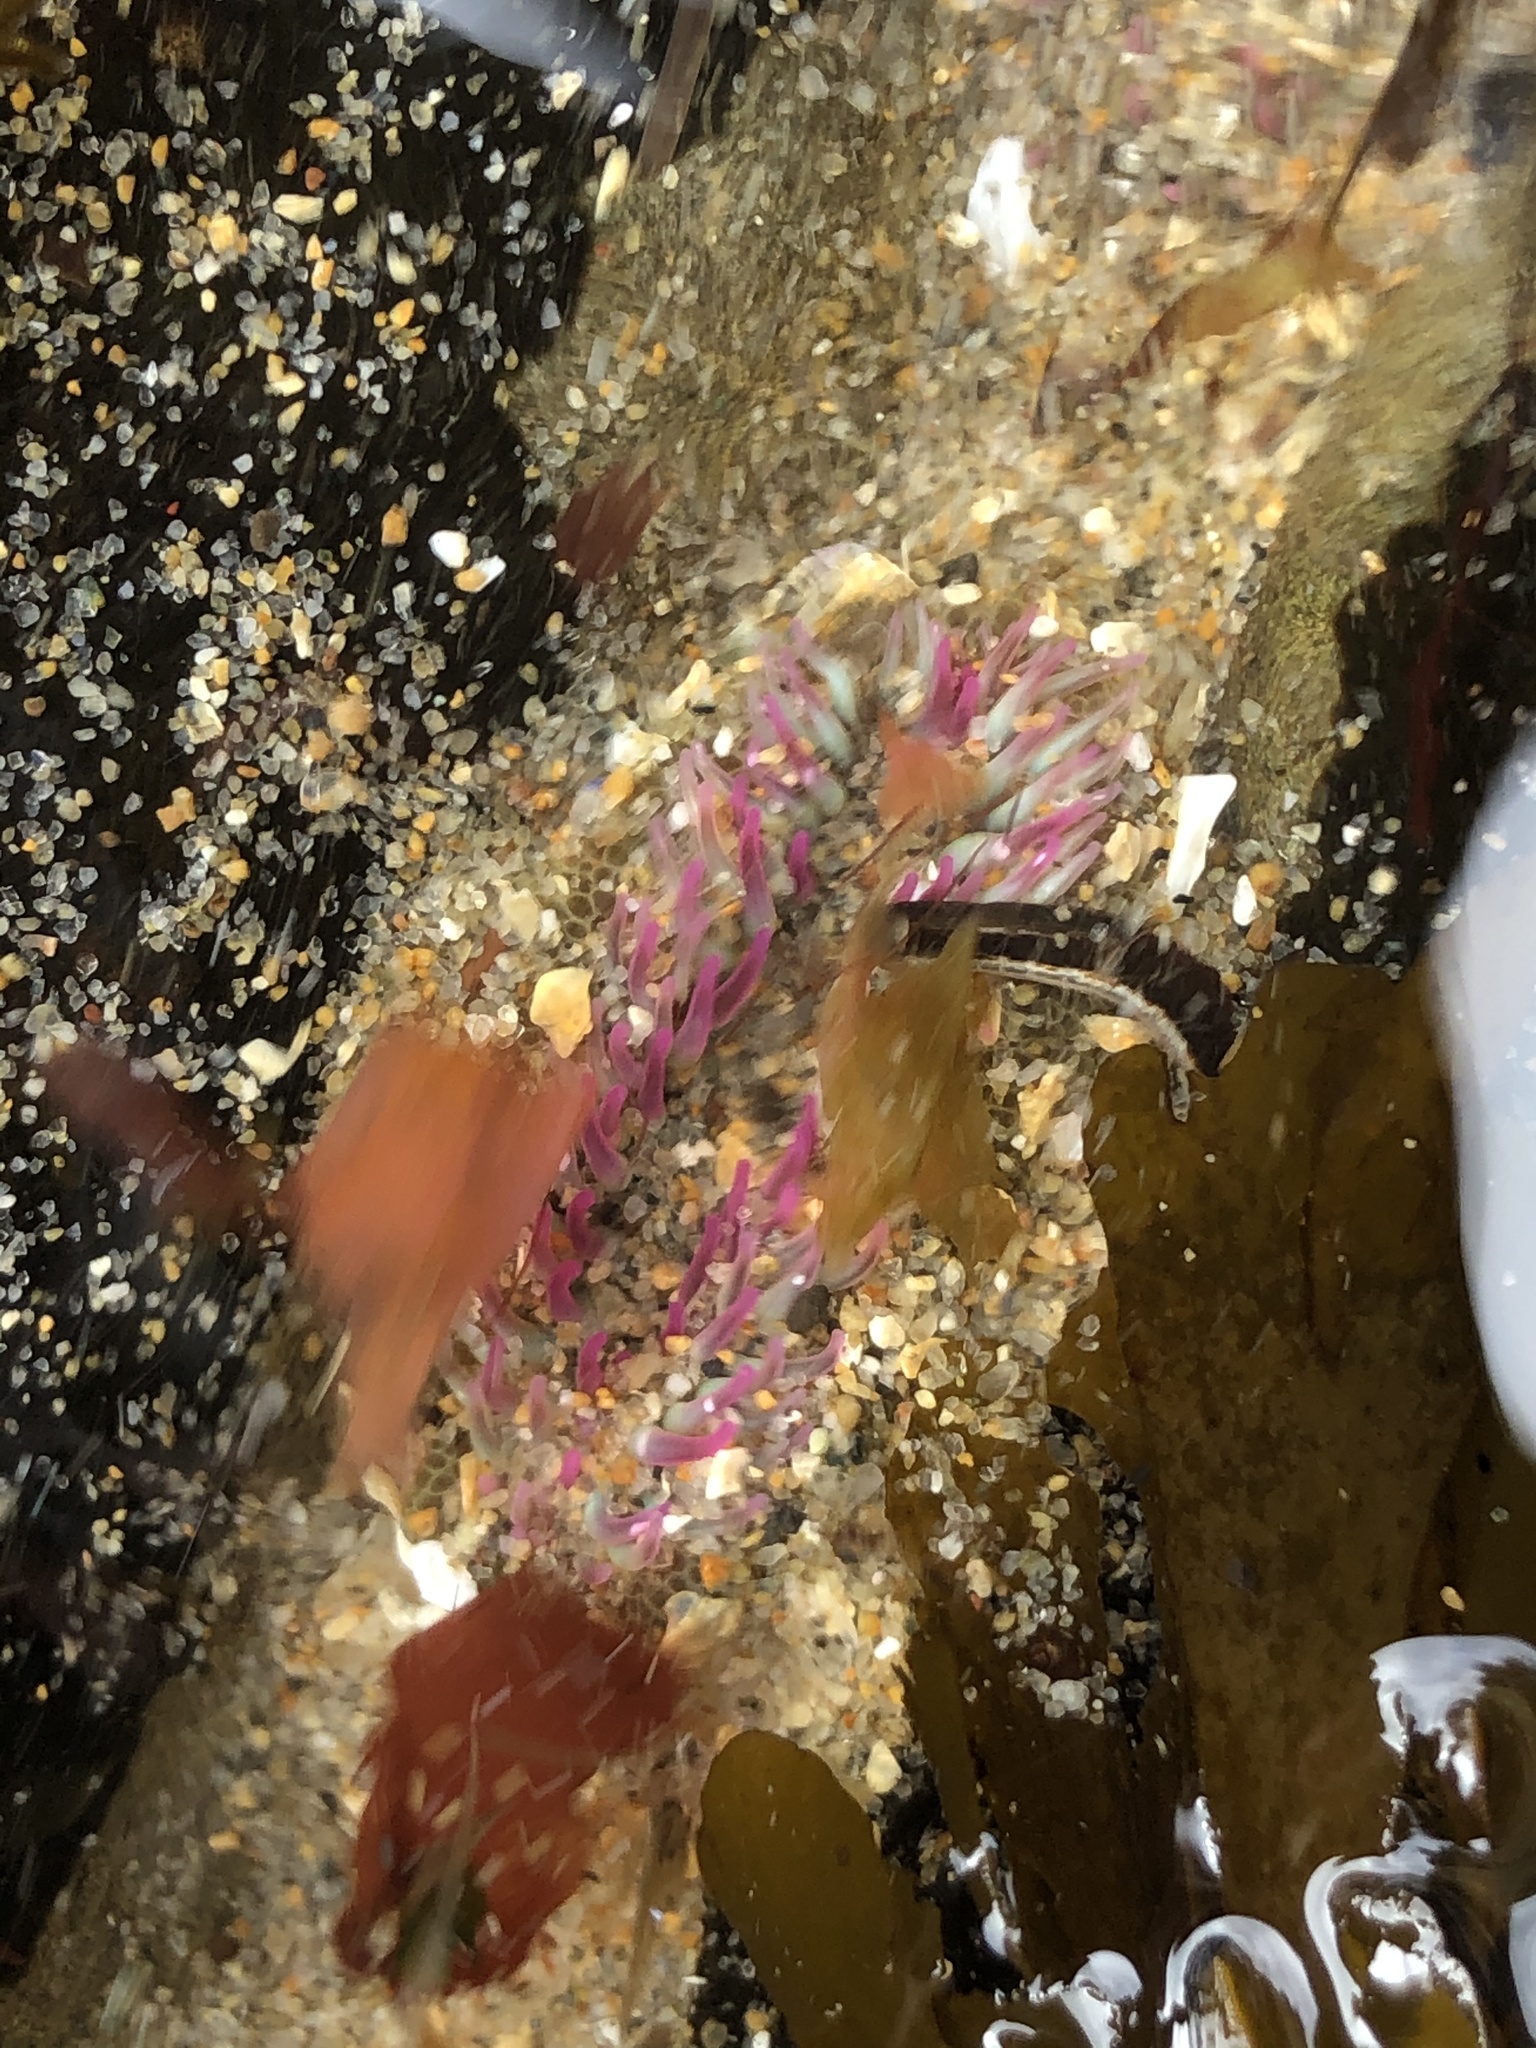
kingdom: Animalia
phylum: Cnidaria
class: Anthozoa
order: Actiniaria
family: Actiniidae
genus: Anthopleura
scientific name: Anthopleura elegantissima
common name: Clonal anemone
